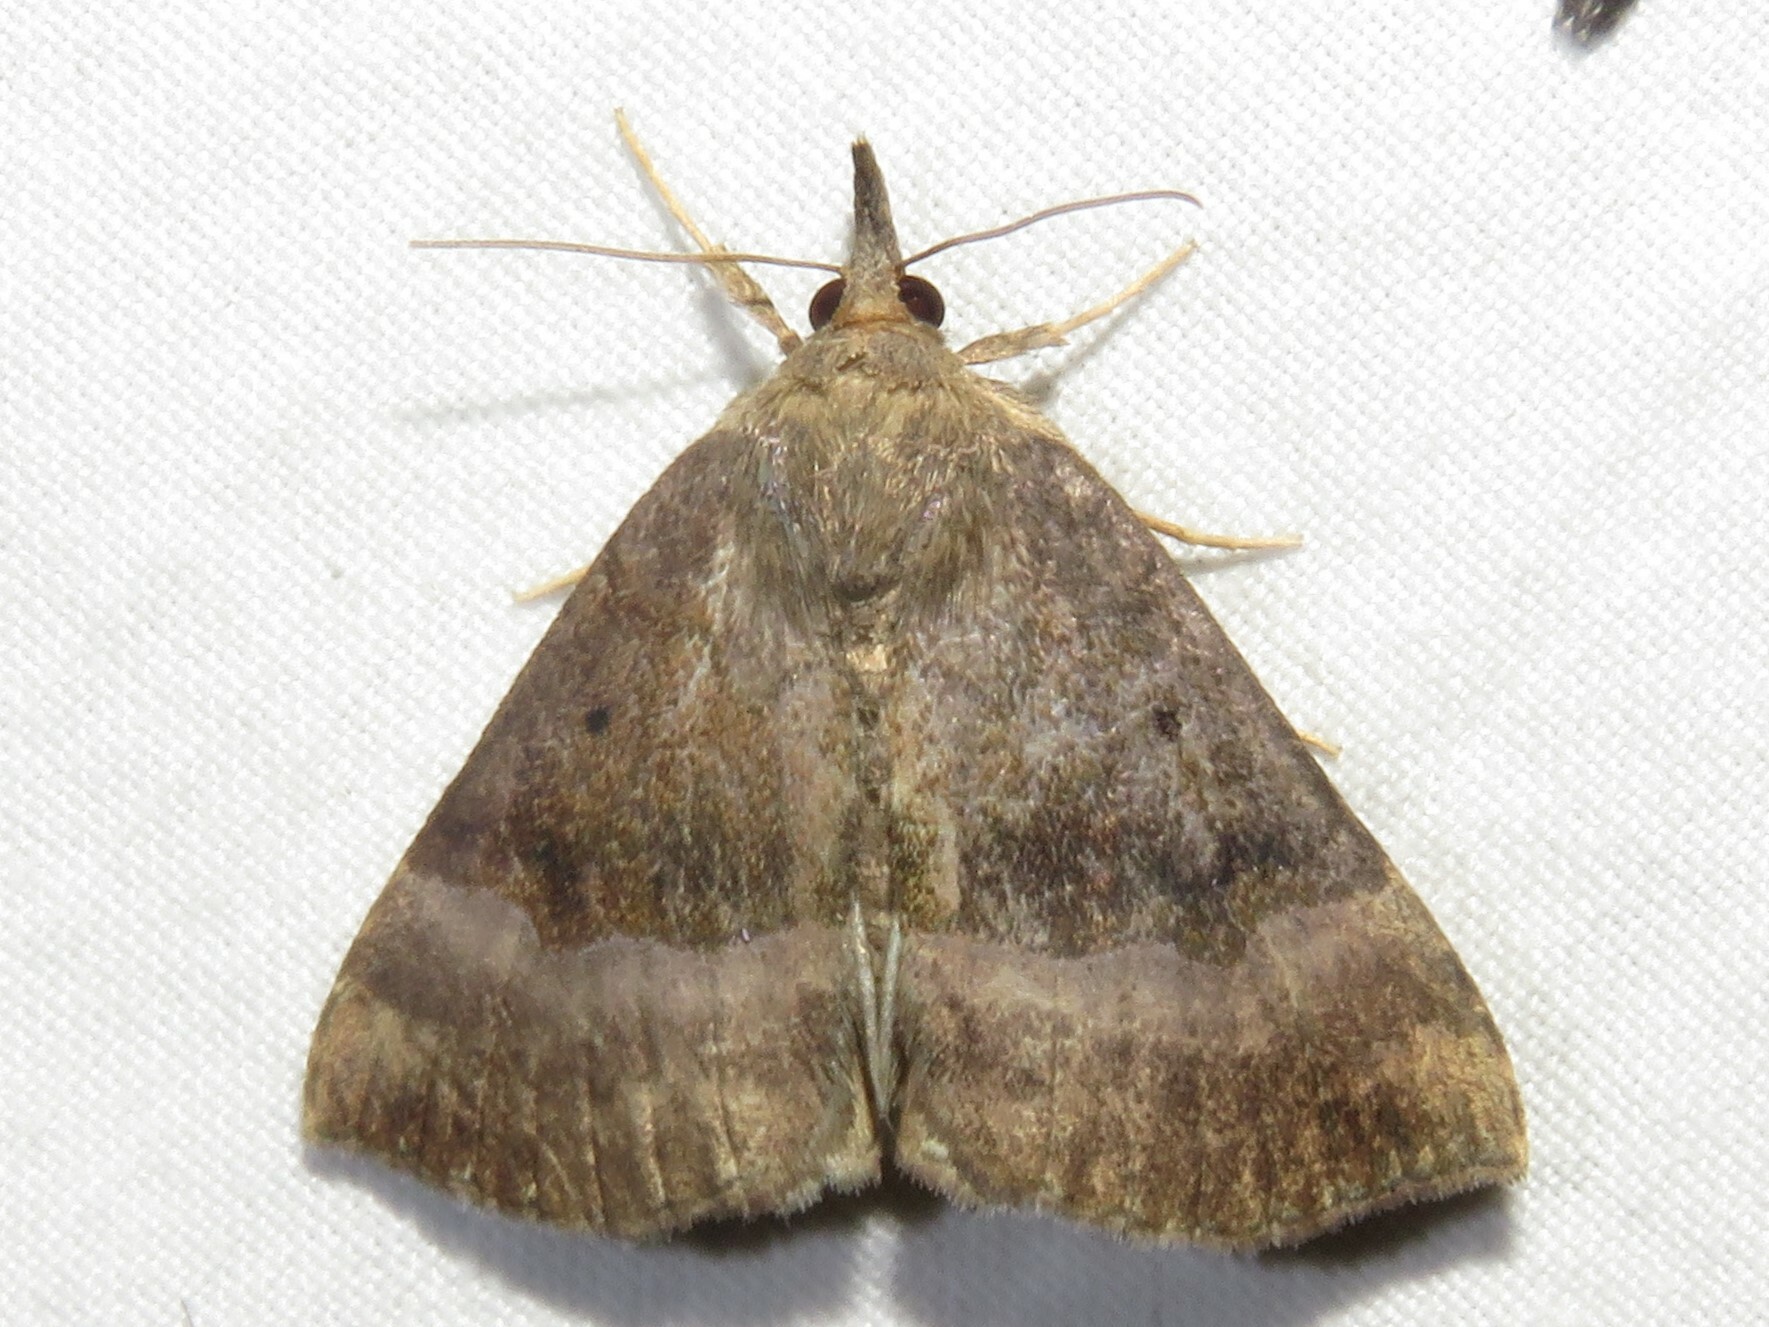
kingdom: Animalia
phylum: Arthropoda
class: Insecta
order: Lepidoptera
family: Erebidae
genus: Hypena
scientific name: Hypena madefactalis
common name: Gray-edged snout
